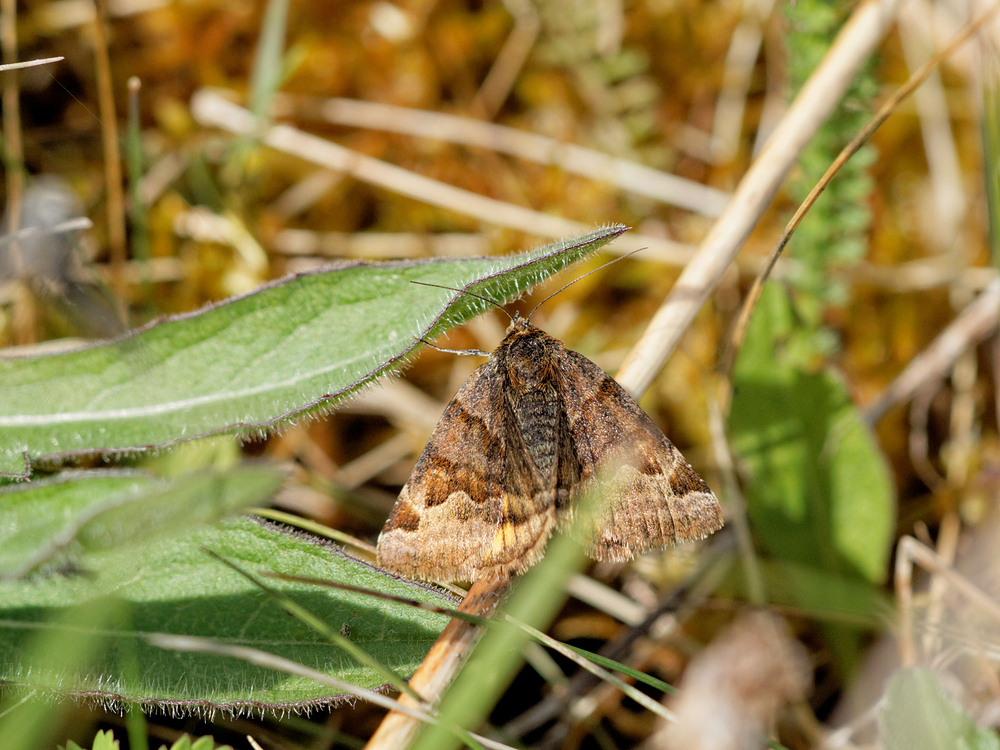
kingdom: Animalia
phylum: Arthropoda
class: Insecta
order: Lepidoptera
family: Erebidae
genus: Euclidia
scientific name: Euclidia glyphica
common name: Burnet companion
